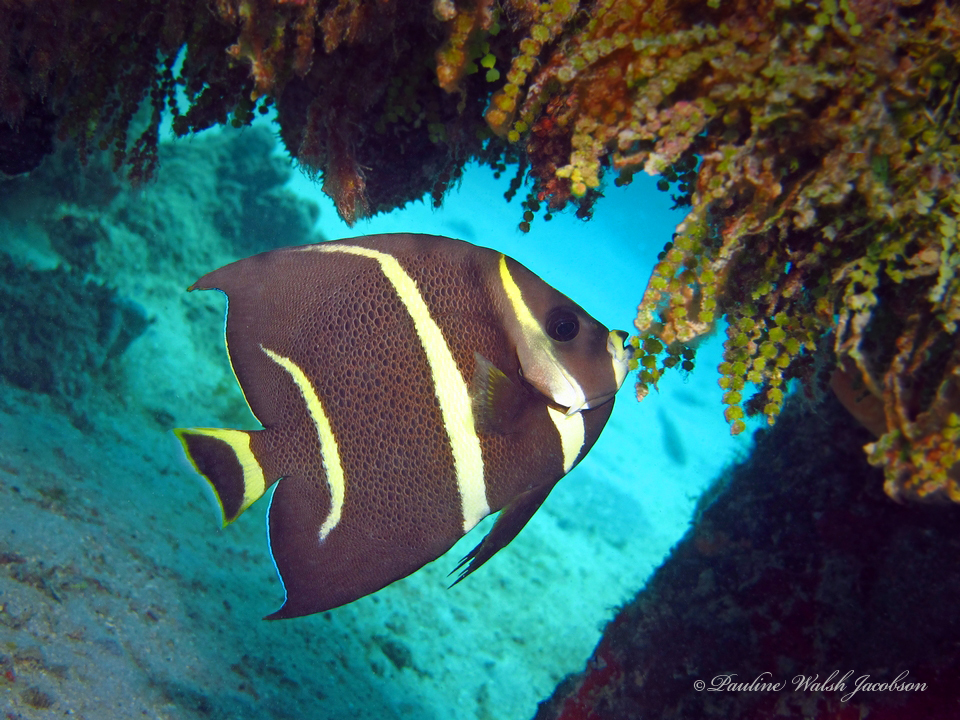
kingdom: Animalia
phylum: Chordata
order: Perciformes
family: Pomacanthidae
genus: Pomacanthus
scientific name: Pomacanthus arcuatus
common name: Gray angelfish
